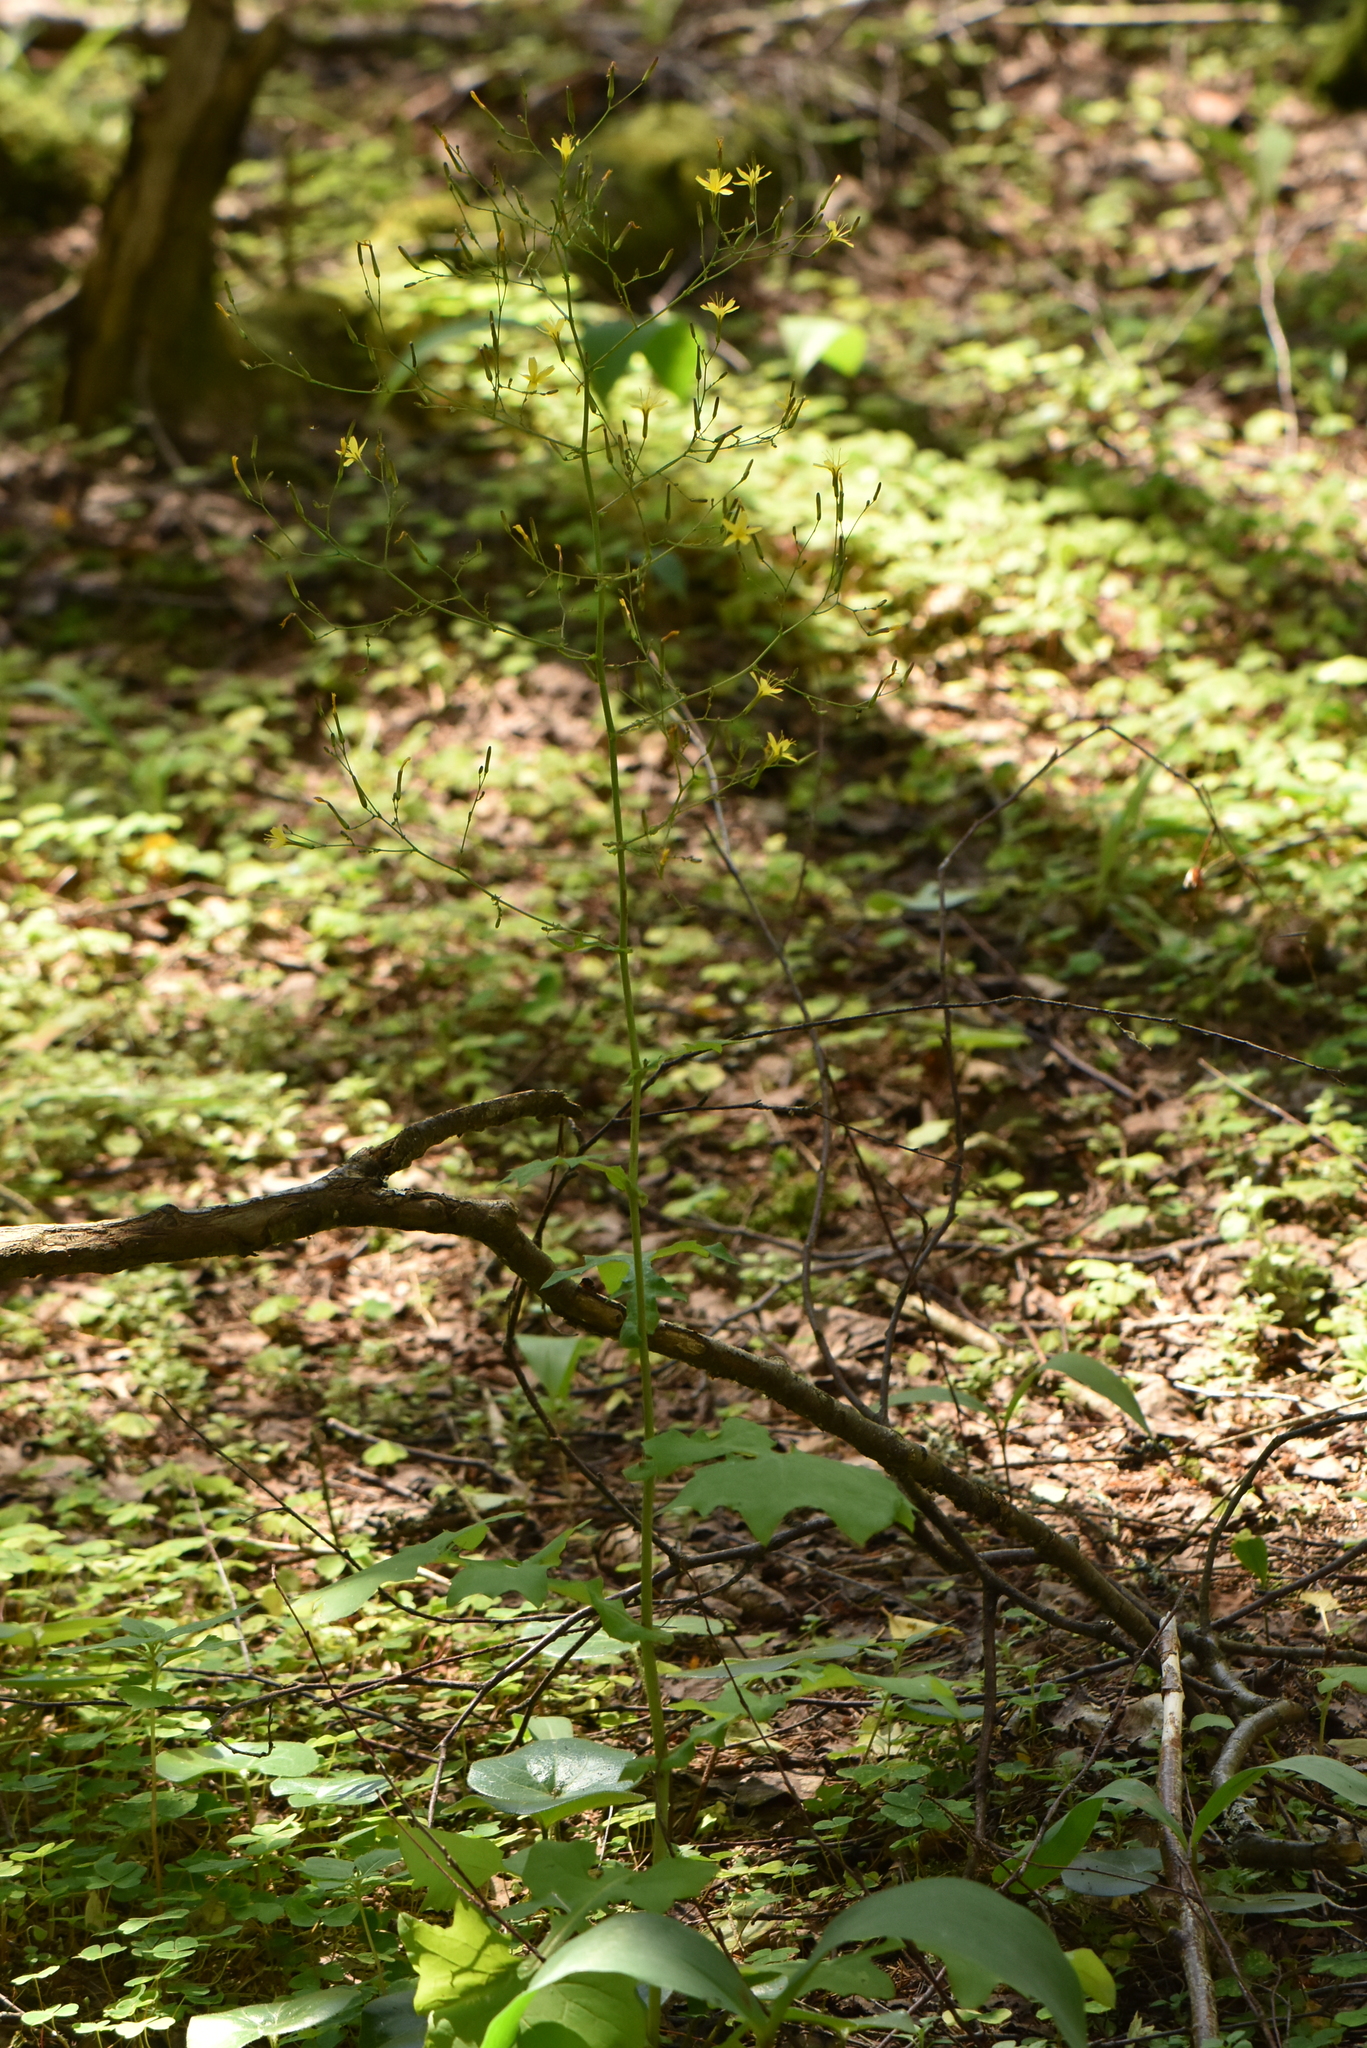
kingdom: Plantae
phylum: Tracheophyta
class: Magnoliopsida
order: Asterales
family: Asteraceae
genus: Mycelis
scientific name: Mycelis muralis
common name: Wall lettuce
